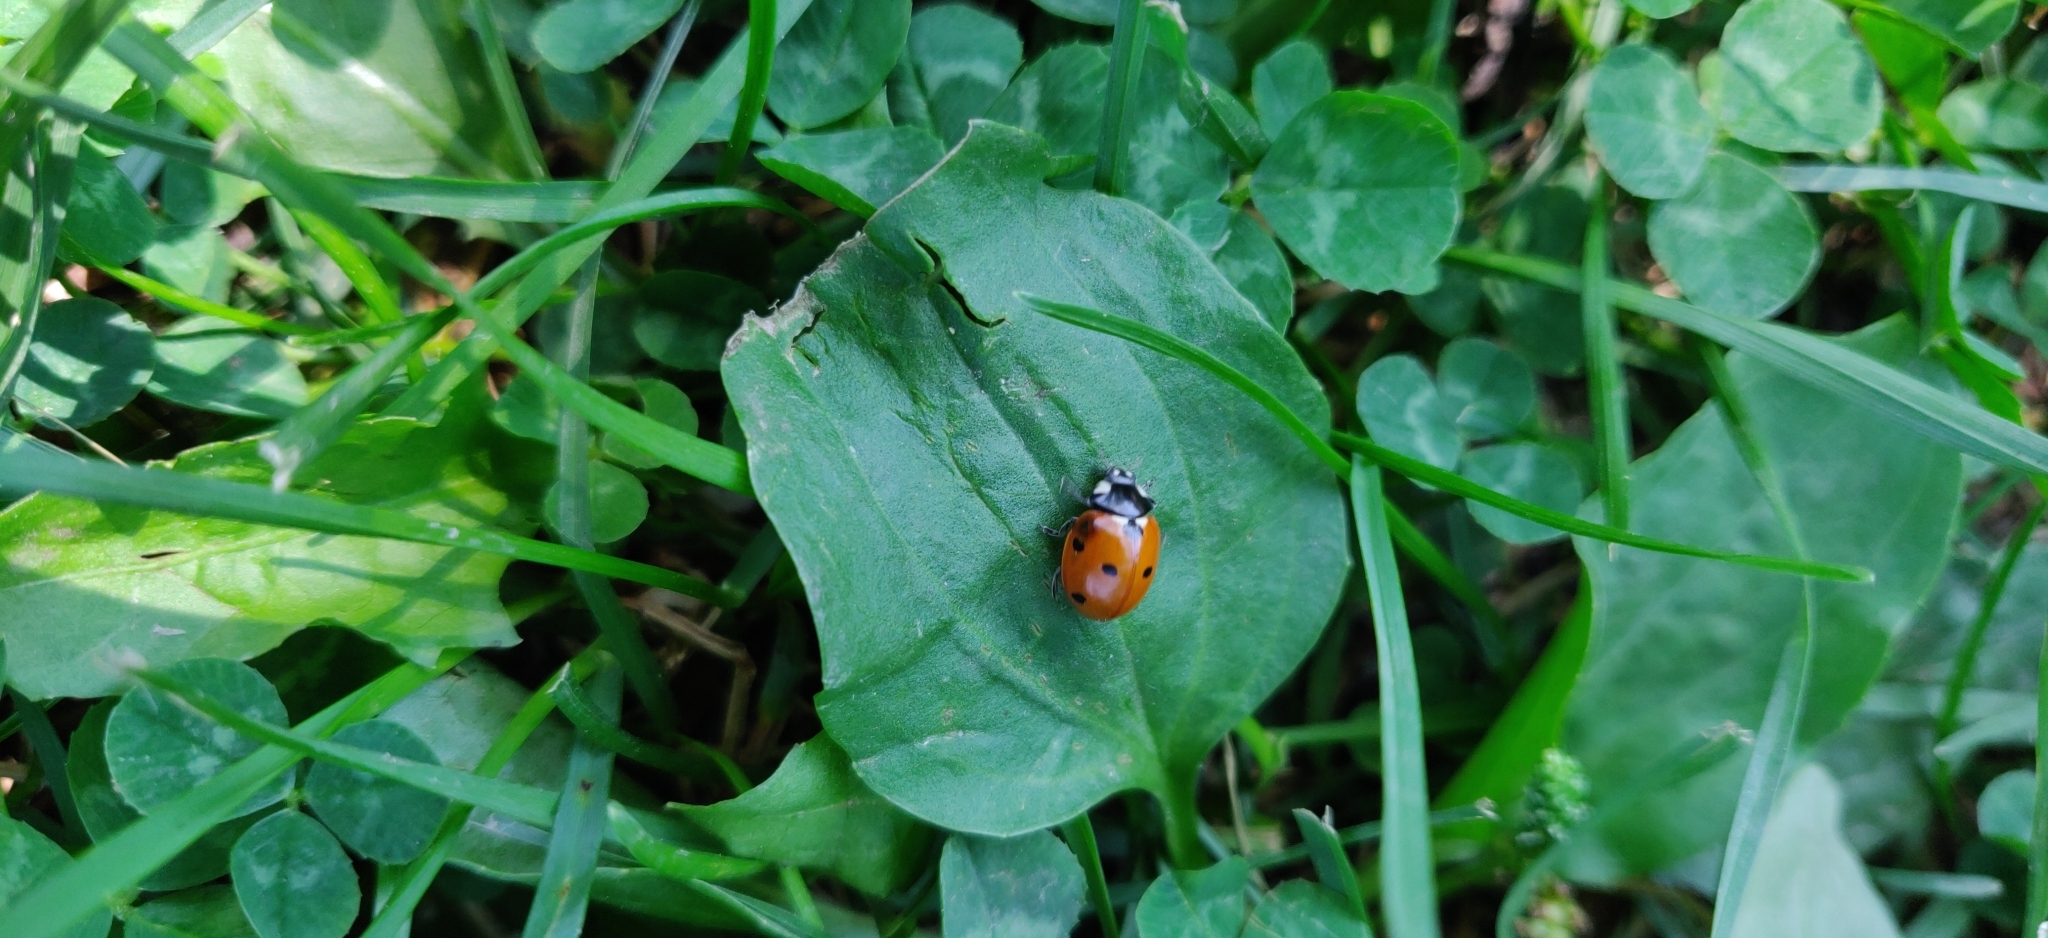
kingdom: Animalia
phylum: Arthropoda
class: Insecta
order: Coleoptera
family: Coccinellidae
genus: Coccinella
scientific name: Coccinella septempunctata
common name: Sevenspotted lady beetle
